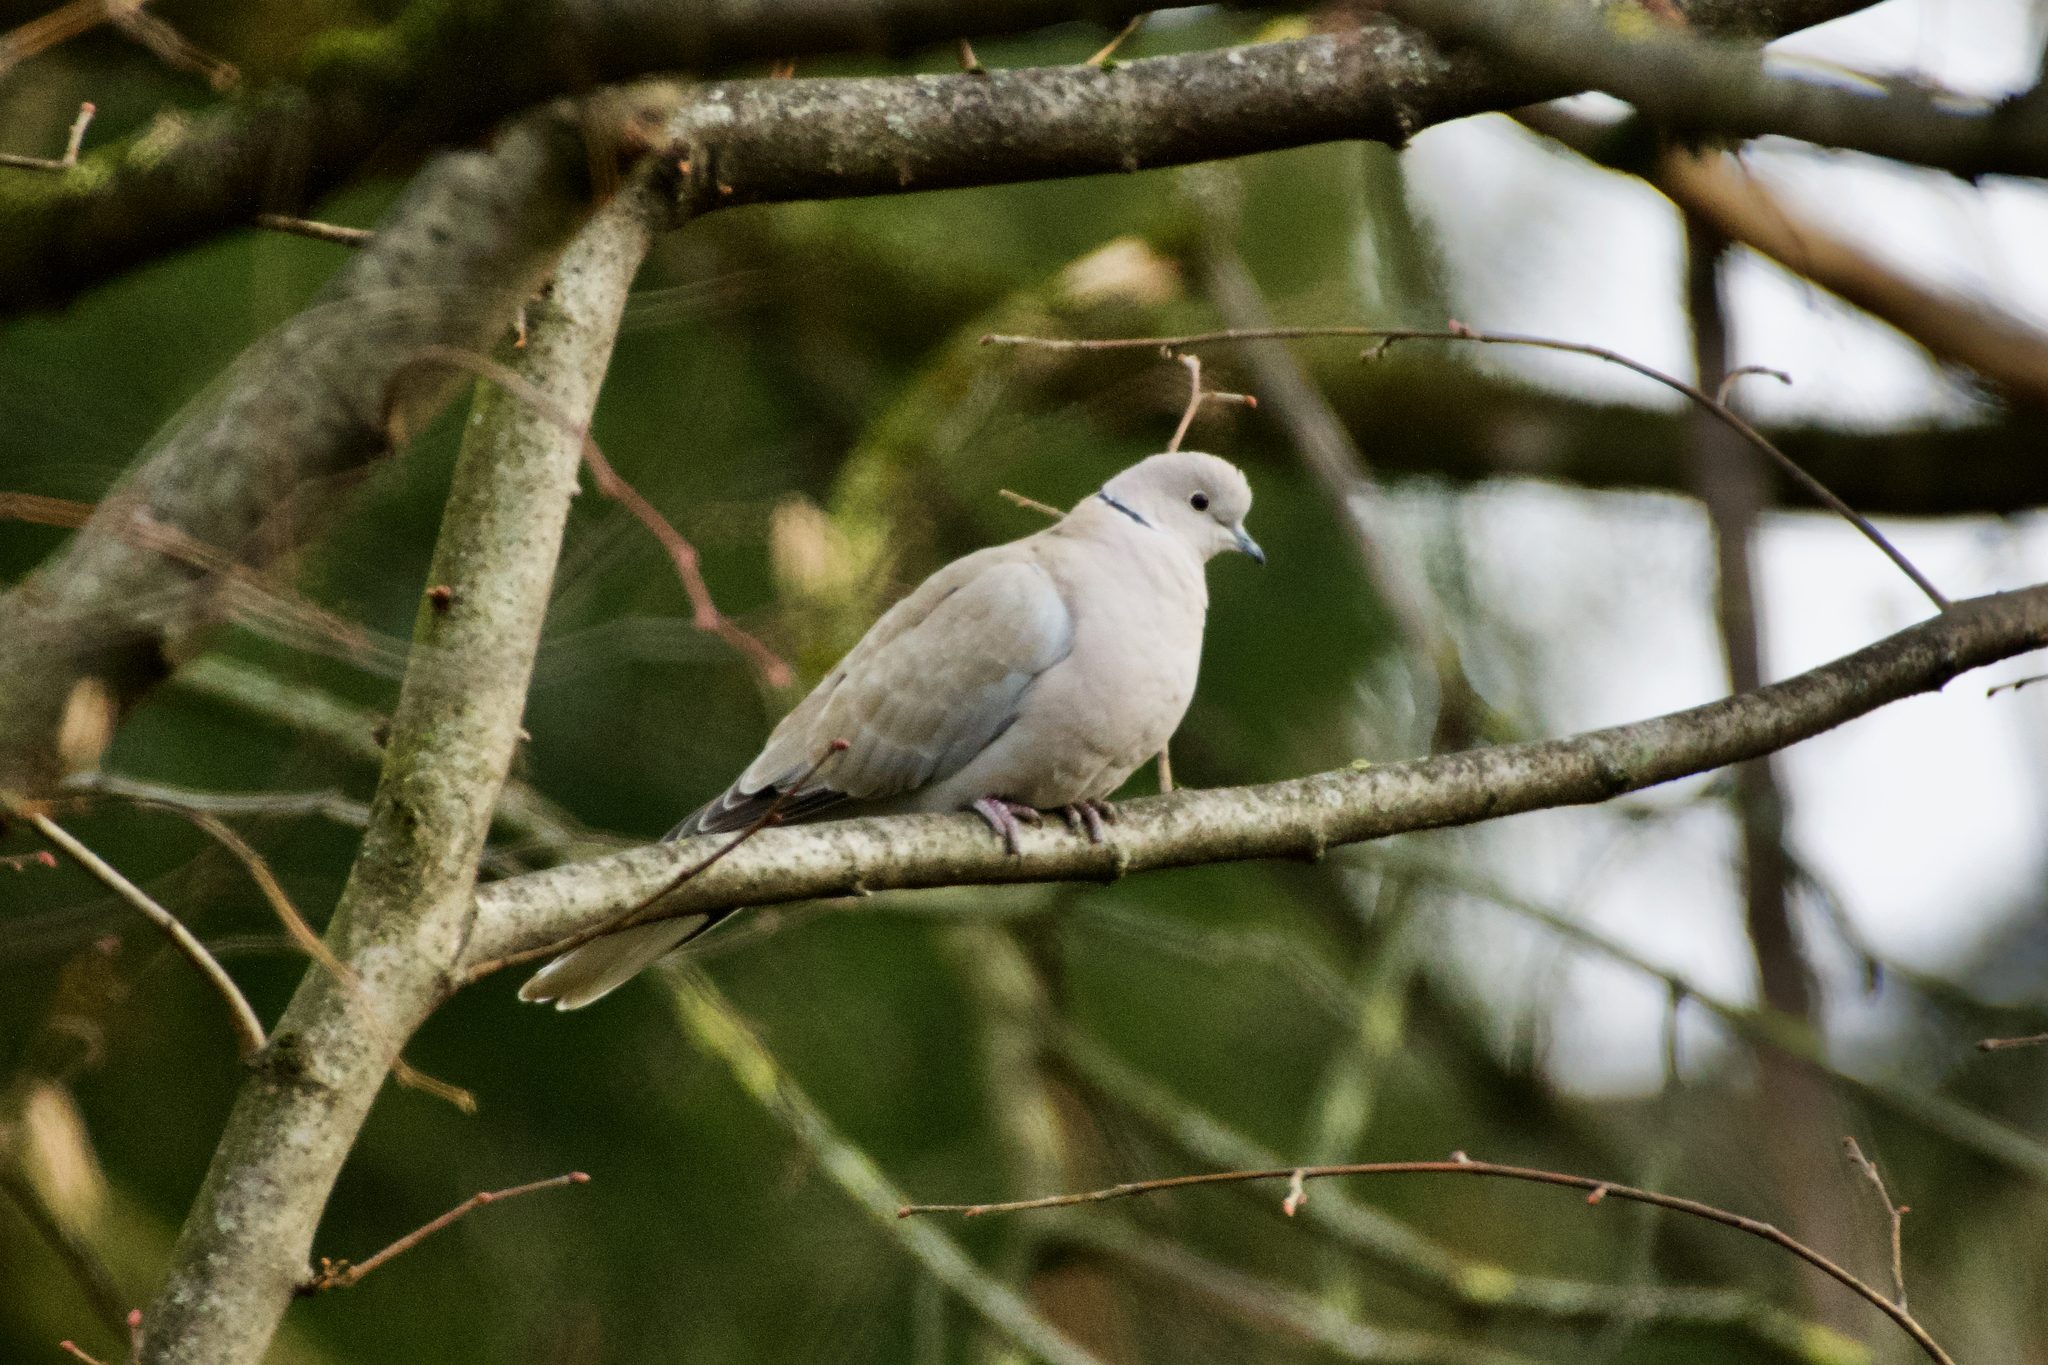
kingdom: Animalia
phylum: Chordata
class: Aves
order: Columbiformes
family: Columbidae
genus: Streptopelia
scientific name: Streptopelia decaocto
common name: Eurasian collared dove
